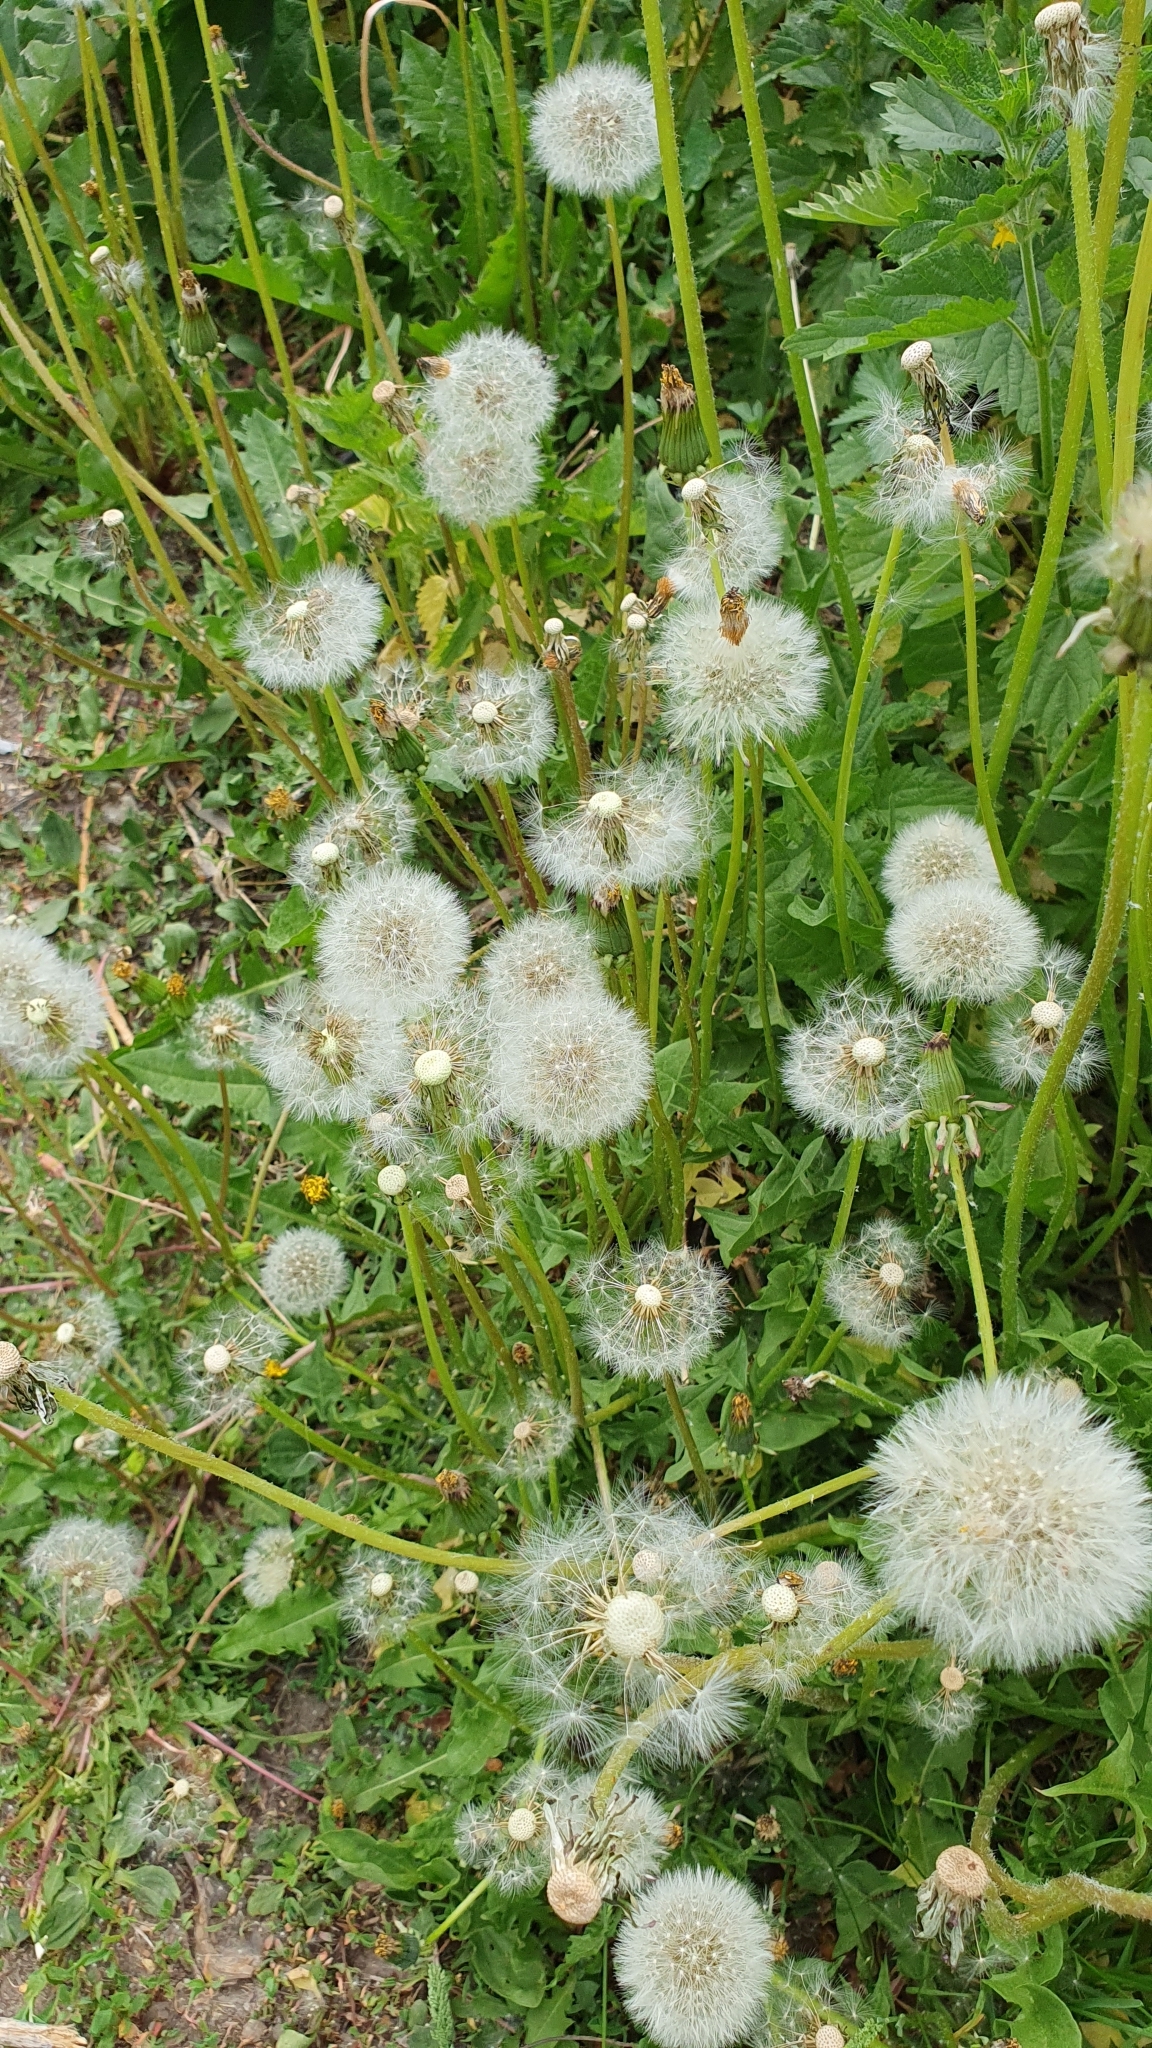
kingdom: Plantae
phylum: Tracheophyta
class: Magnoliopsida
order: Asterales
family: Asteraceae
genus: Taraxacum
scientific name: Taraxacum officinale
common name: Common dandelion
